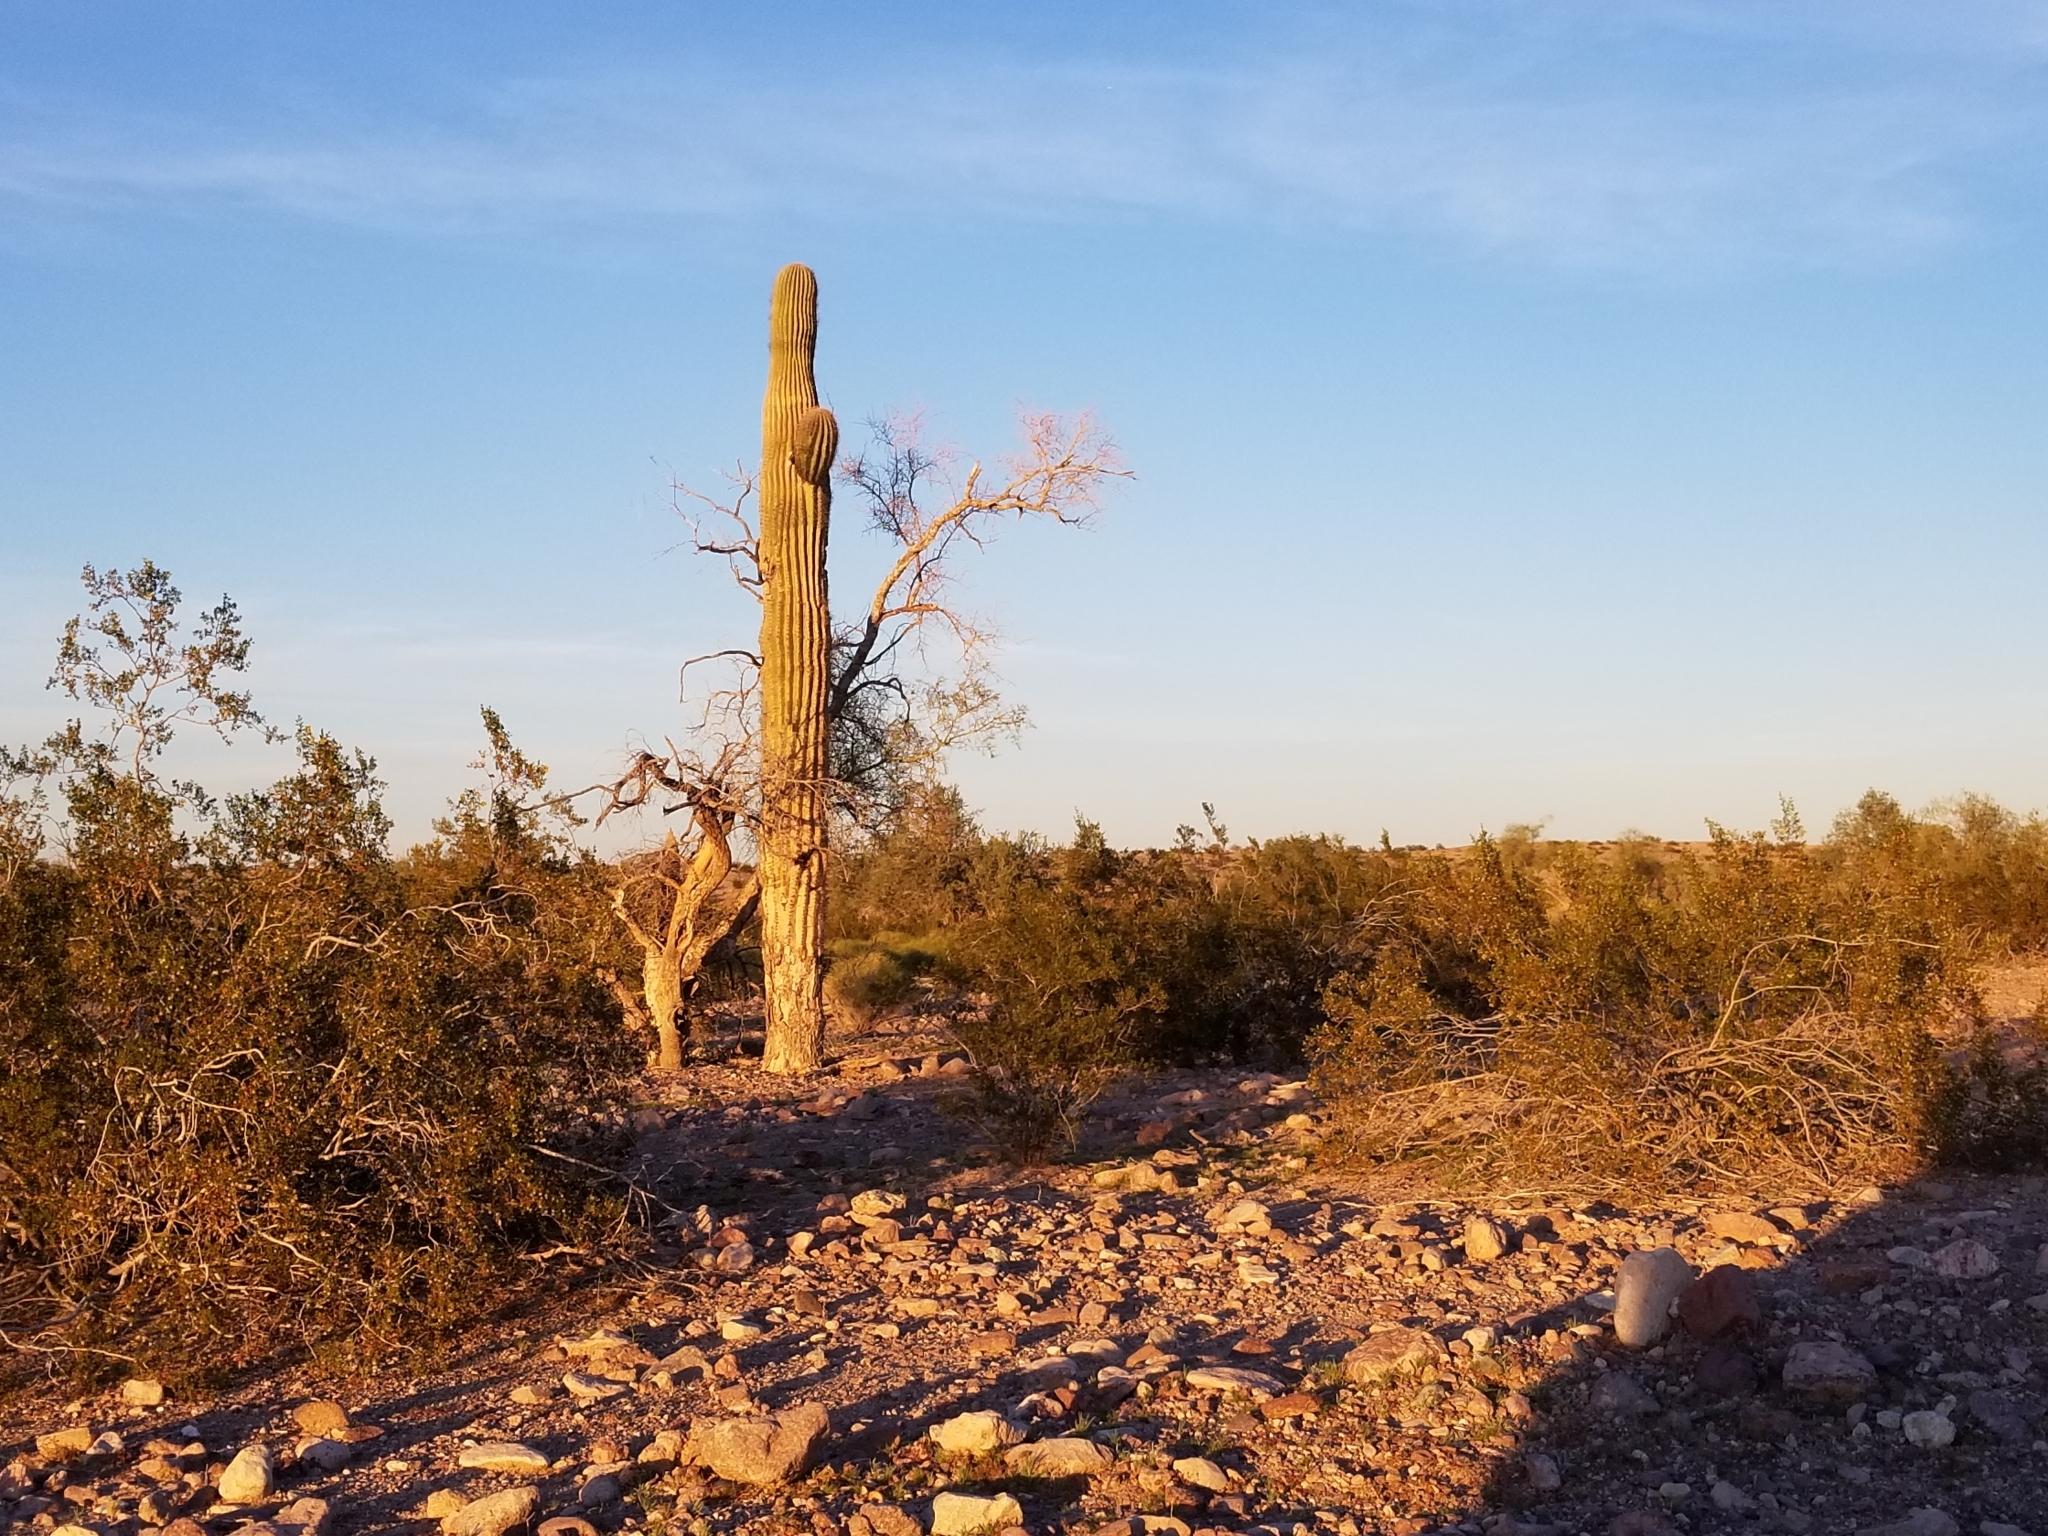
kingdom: Plantae
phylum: Tracheophyta
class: Magnoliopsida
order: Caryophyllales
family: Cactaceae
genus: Carnegiea
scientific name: Carnegiea gigantea
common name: Saguaro
